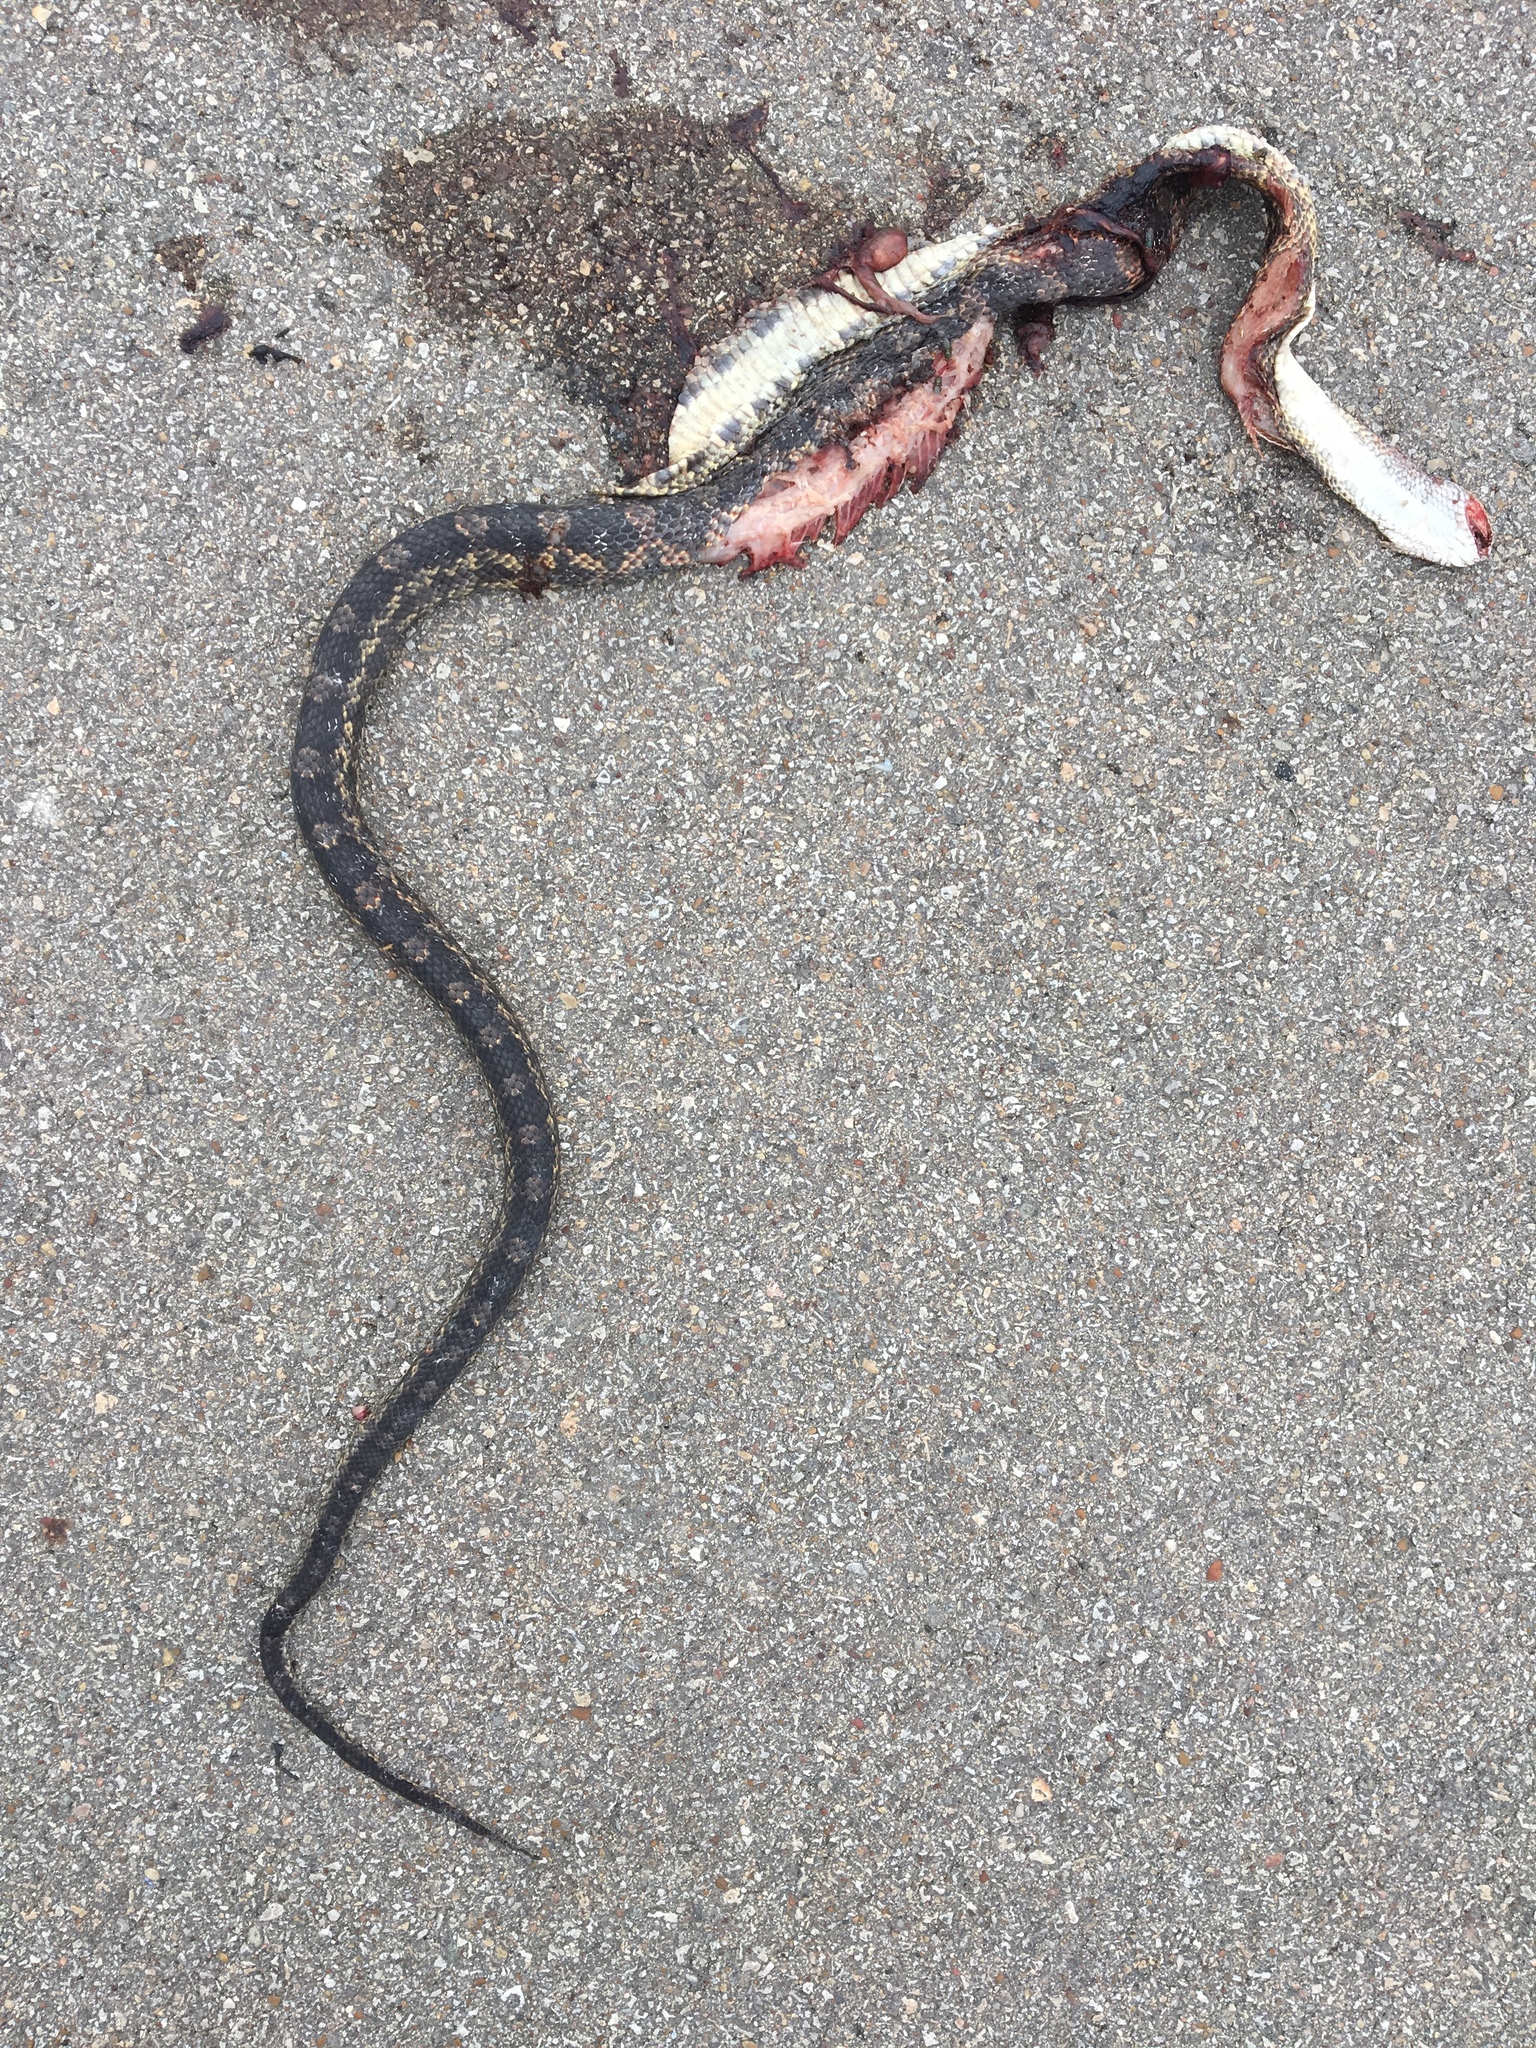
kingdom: Animalia
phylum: Chordata
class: Squamata
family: Colubridae
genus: Pantherophis
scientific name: Pantherophis obsoletus
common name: Black rat snake
